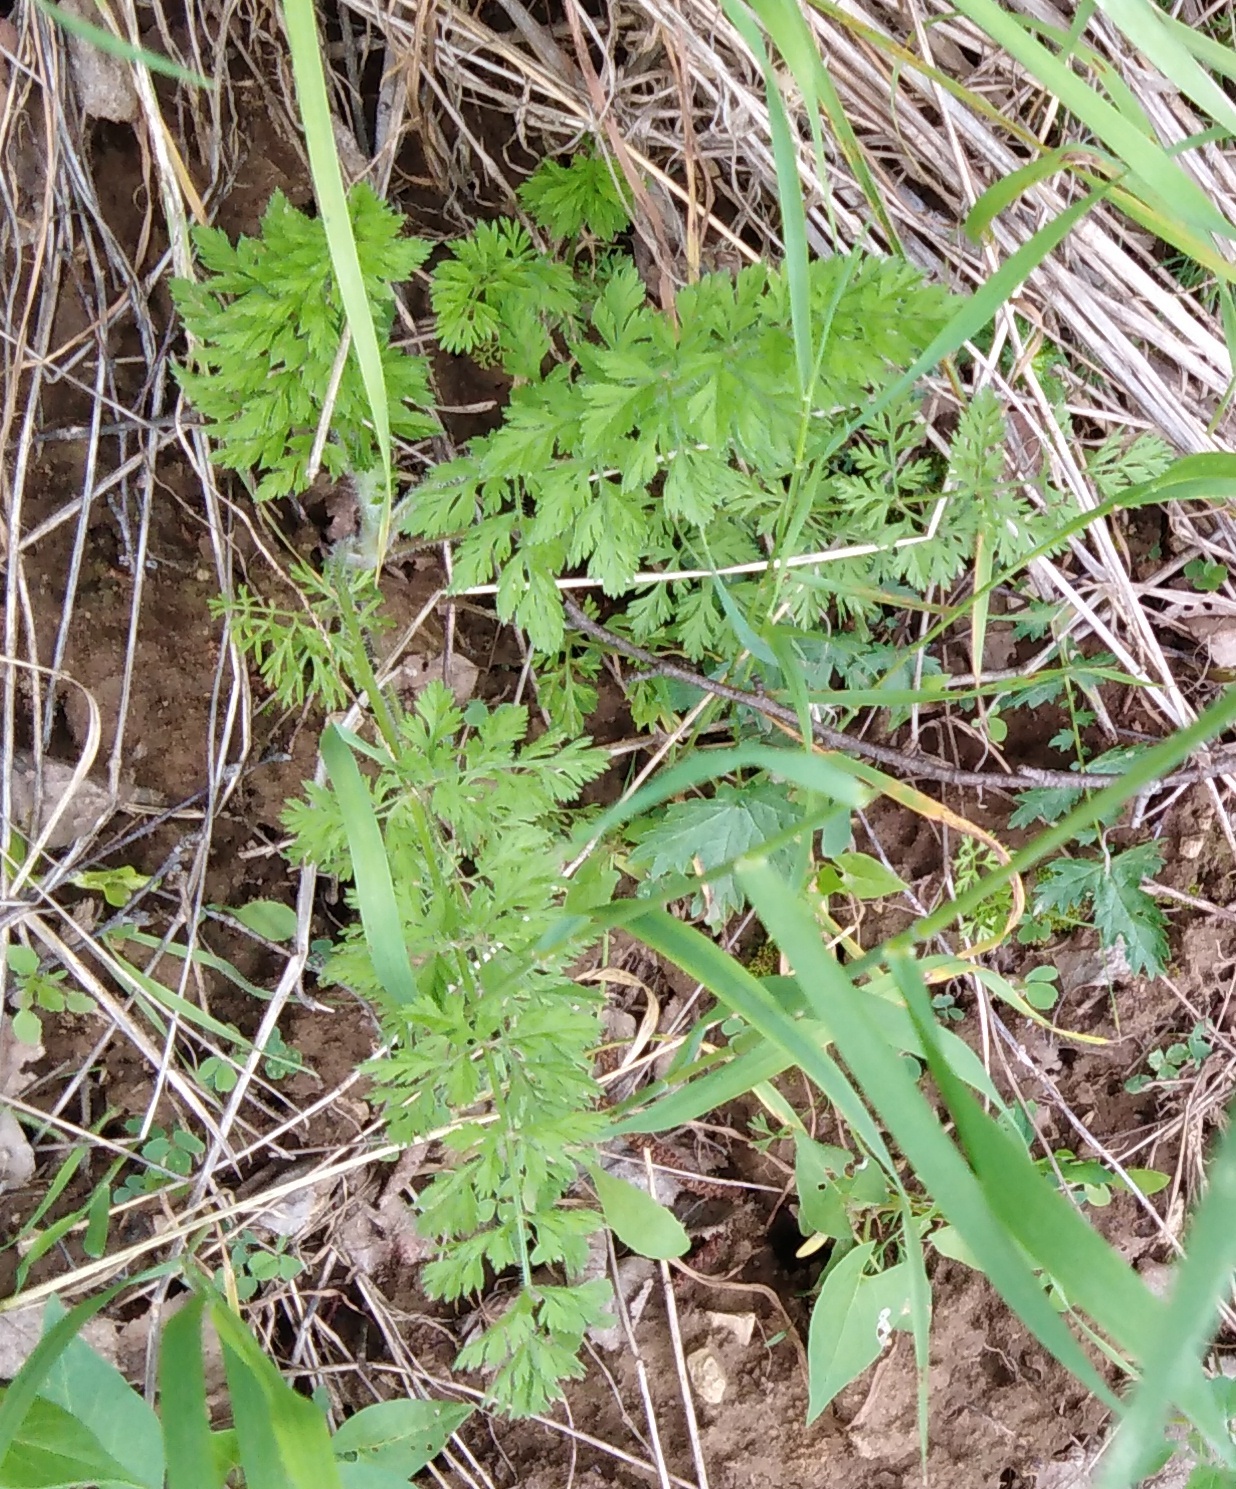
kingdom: Plantae
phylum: Tracheophyta
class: Magnoliopsida
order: Apiales
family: Apiaceae
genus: Daucus
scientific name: Daucus carota
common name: Wild carrot
